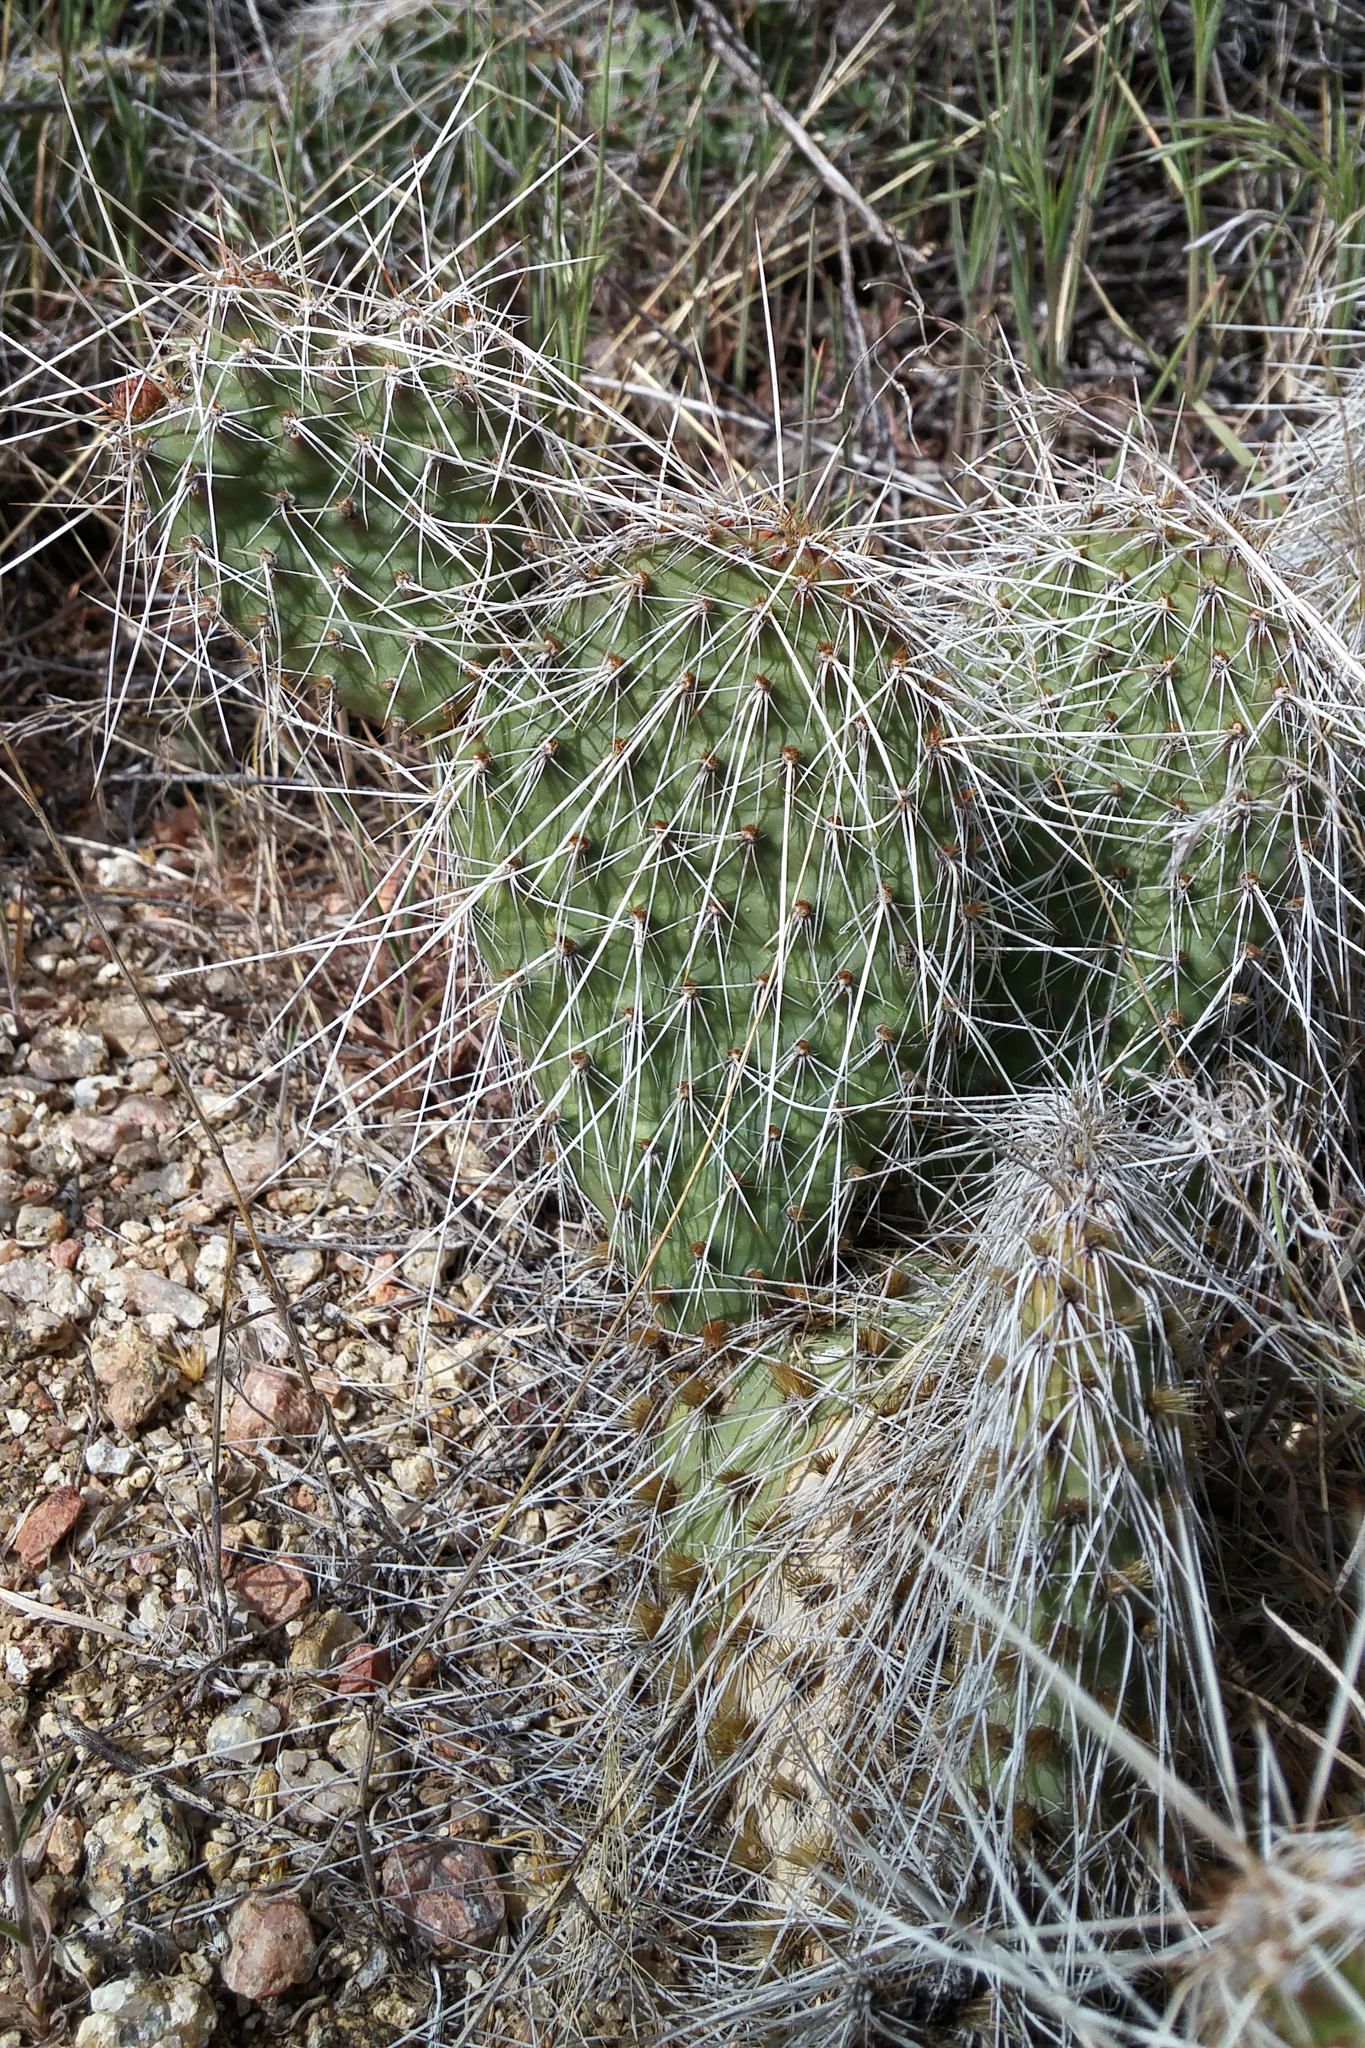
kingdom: Plantae
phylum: Tracheophyta
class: Magnoliopsida
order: Caryophyllales
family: Cactaceae
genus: Opuntia
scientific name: Opuntia polyacantha
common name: Plains prickly-pear
